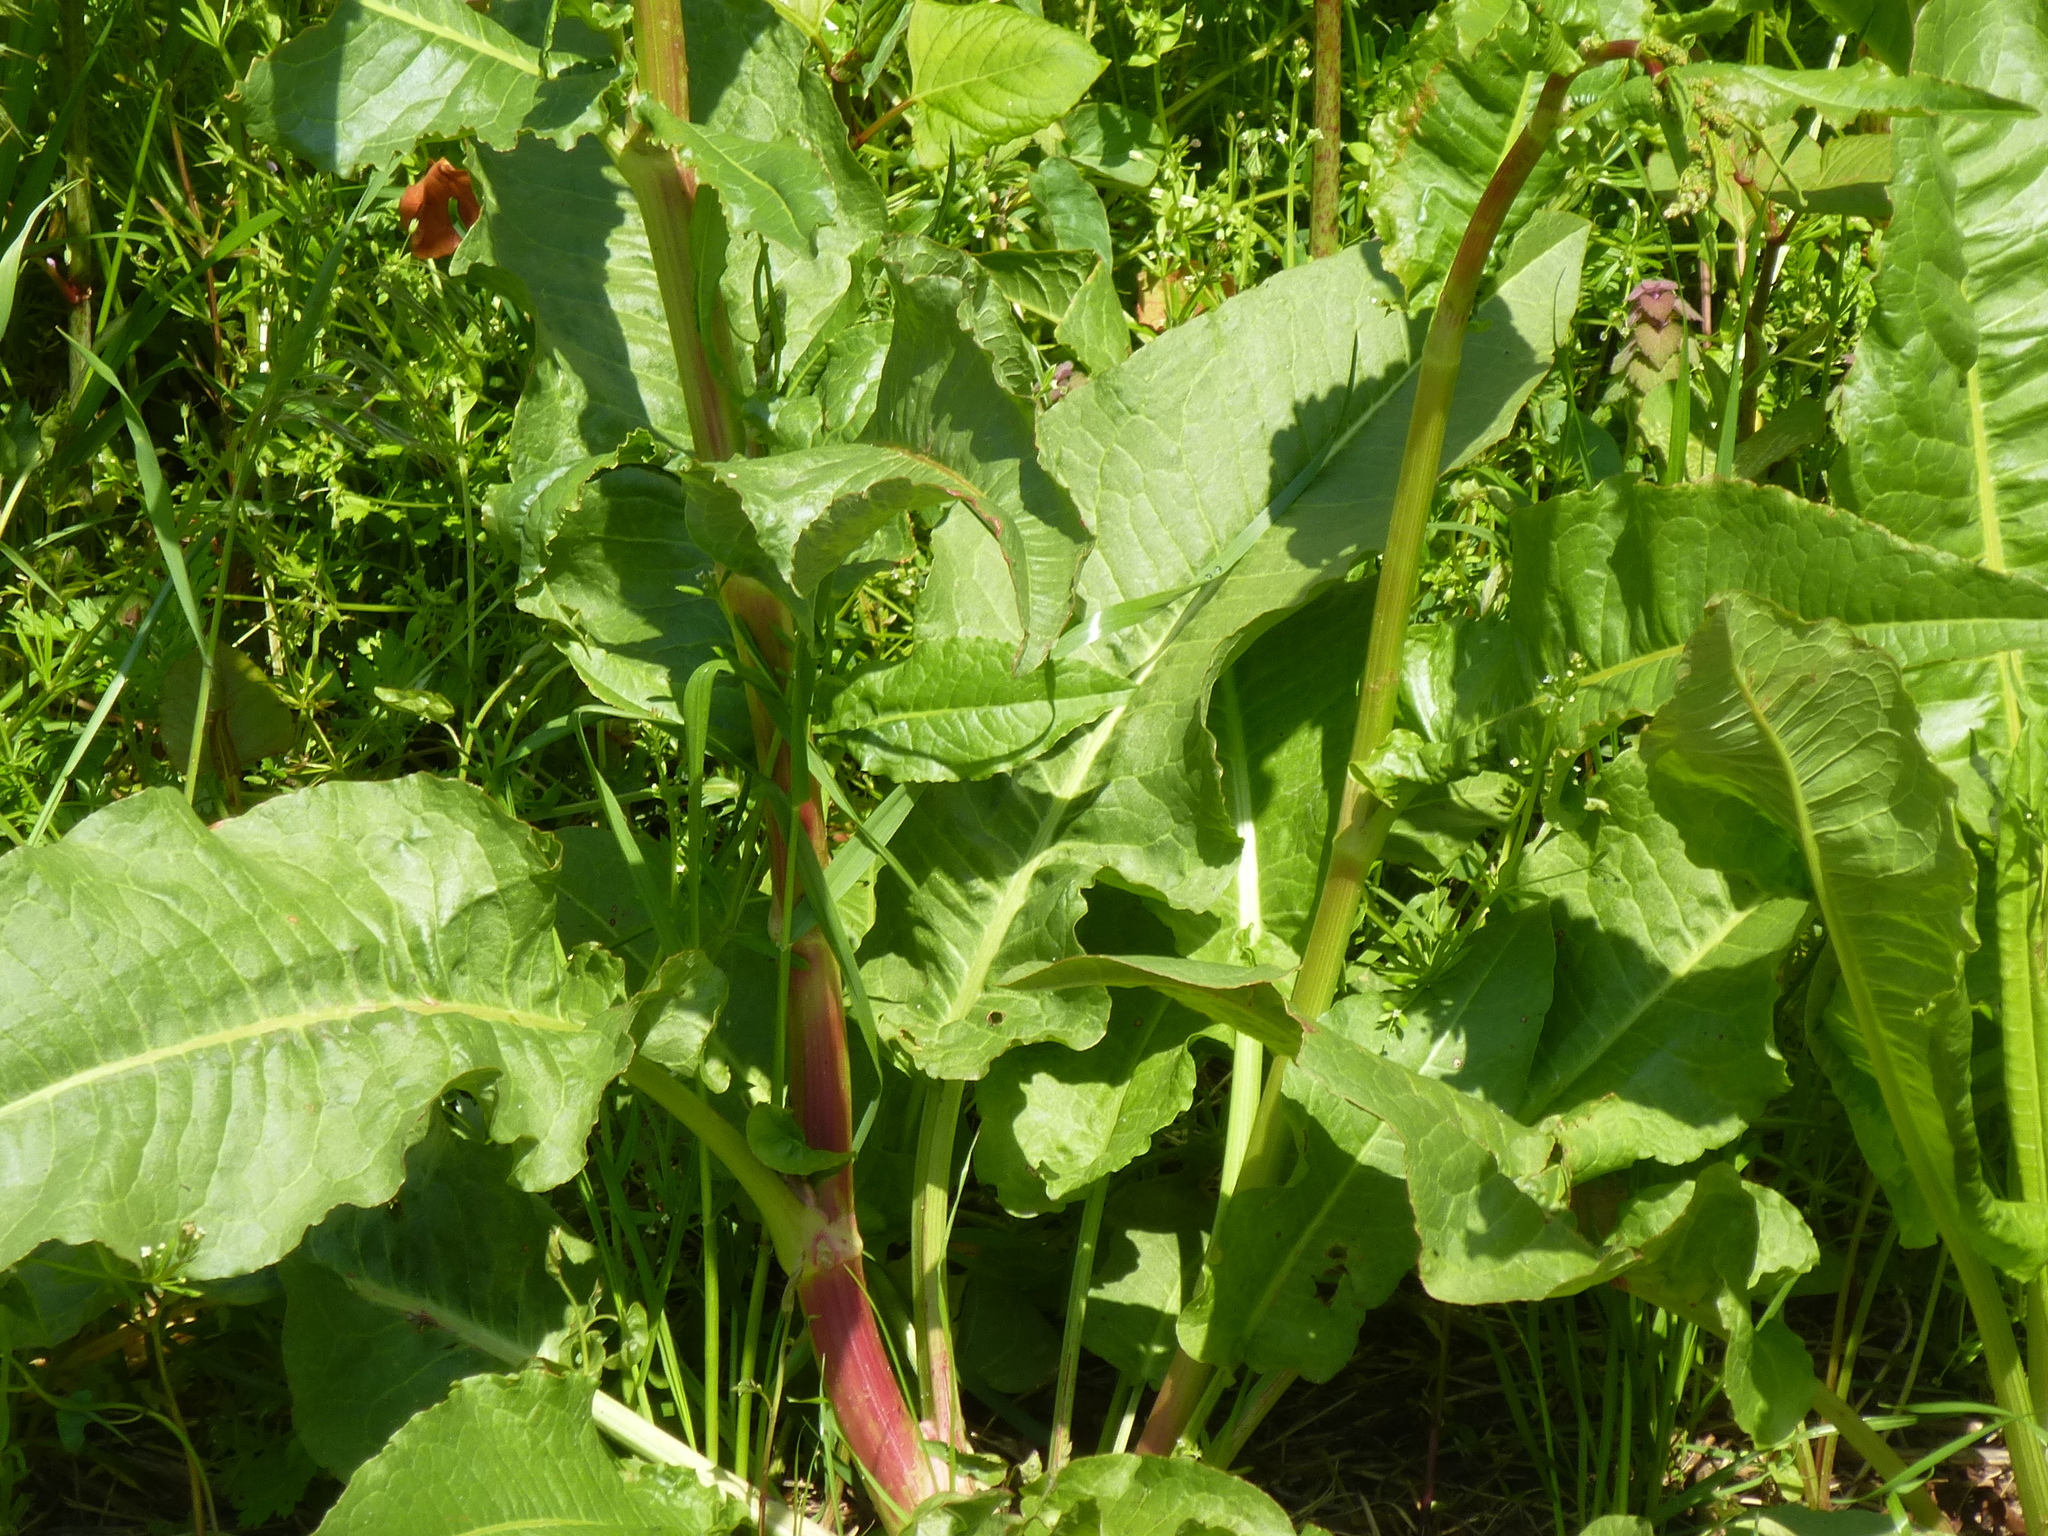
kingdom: Plantae
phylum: Tracheophyta
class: Magnoliopsida
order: Caryophyllales
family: Polygonaceae
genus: Rumex
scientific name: Rumex crispus
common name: Curled dock
